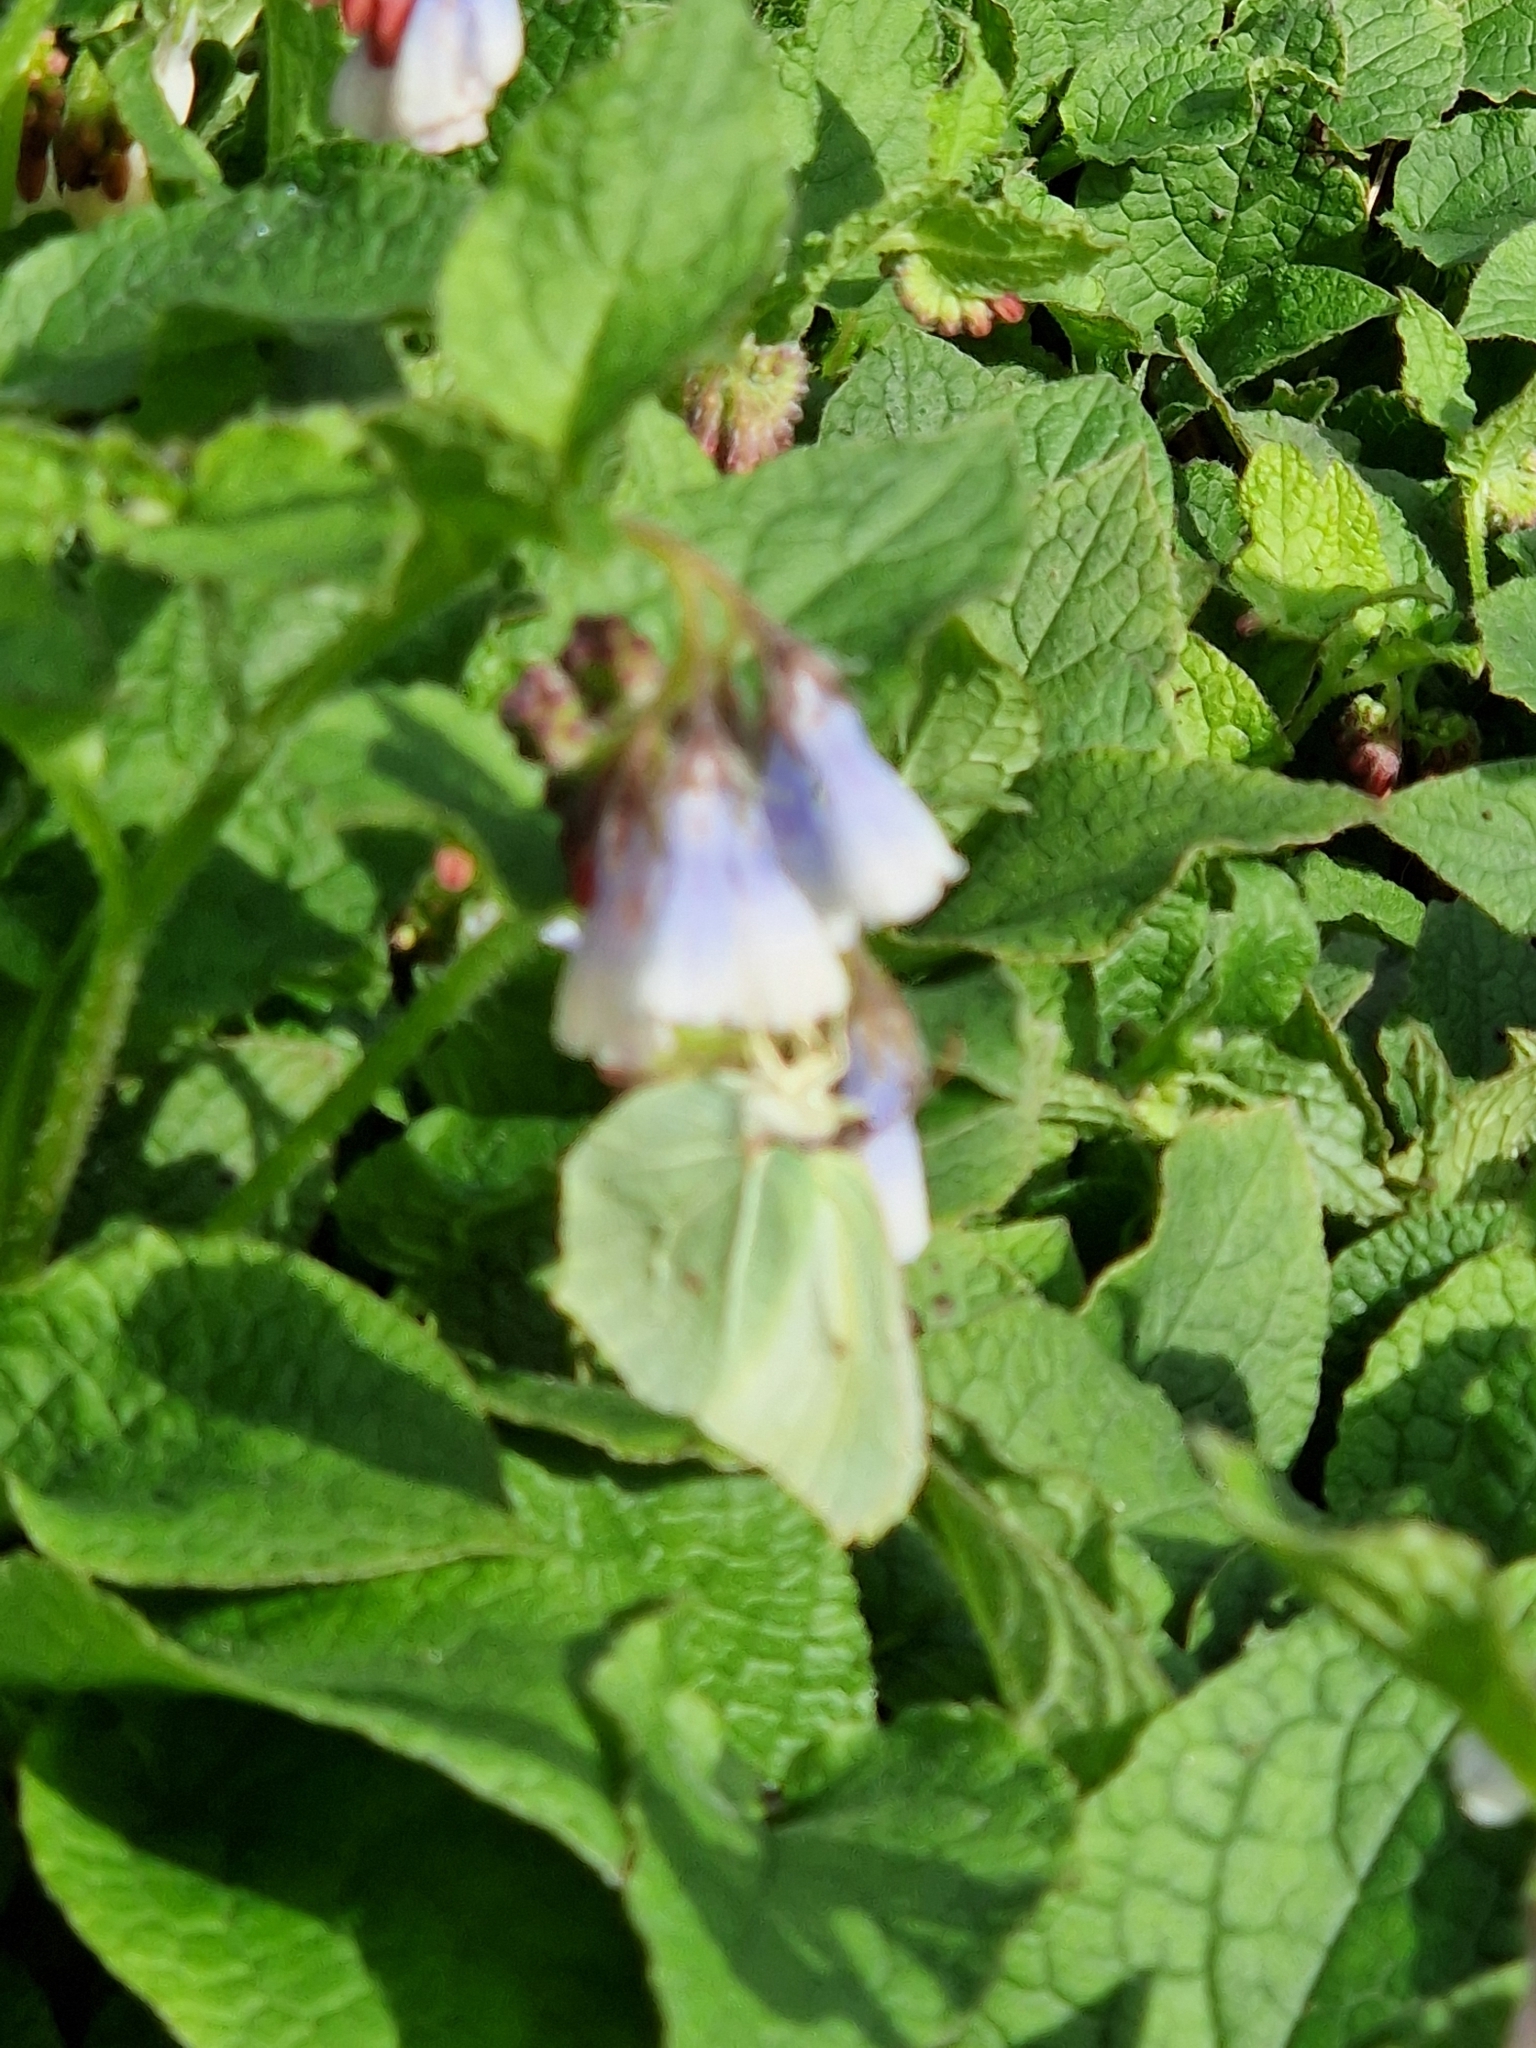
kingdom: Animalia
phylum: Arthropoda
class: Insecta
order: Lepidoptera
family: Pieridae
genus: Gonepteryx
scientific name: Gonepteryx rhamni
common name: Brimstone
